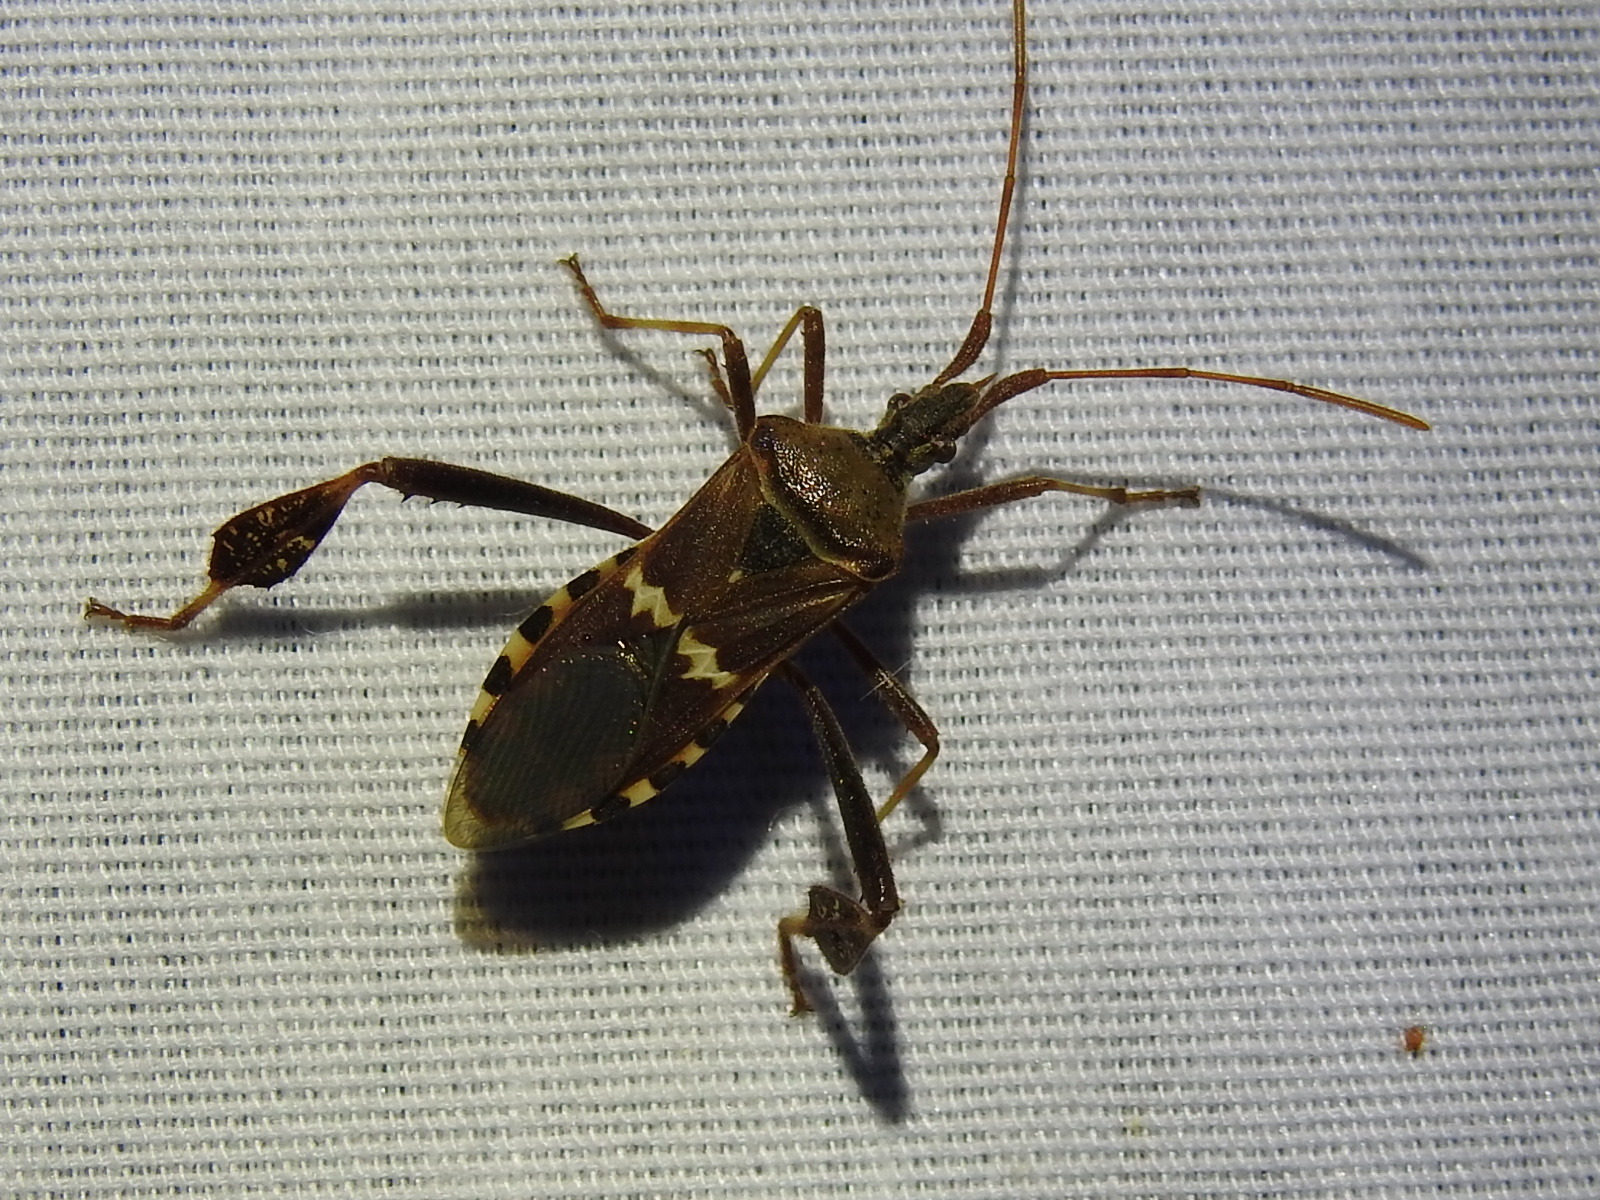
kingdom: Animalia
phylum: Arthropoda
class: Insecta
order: Hemiptera
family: Coreidae
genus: Leptoglossus
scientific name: Leptoglossus clypealis
